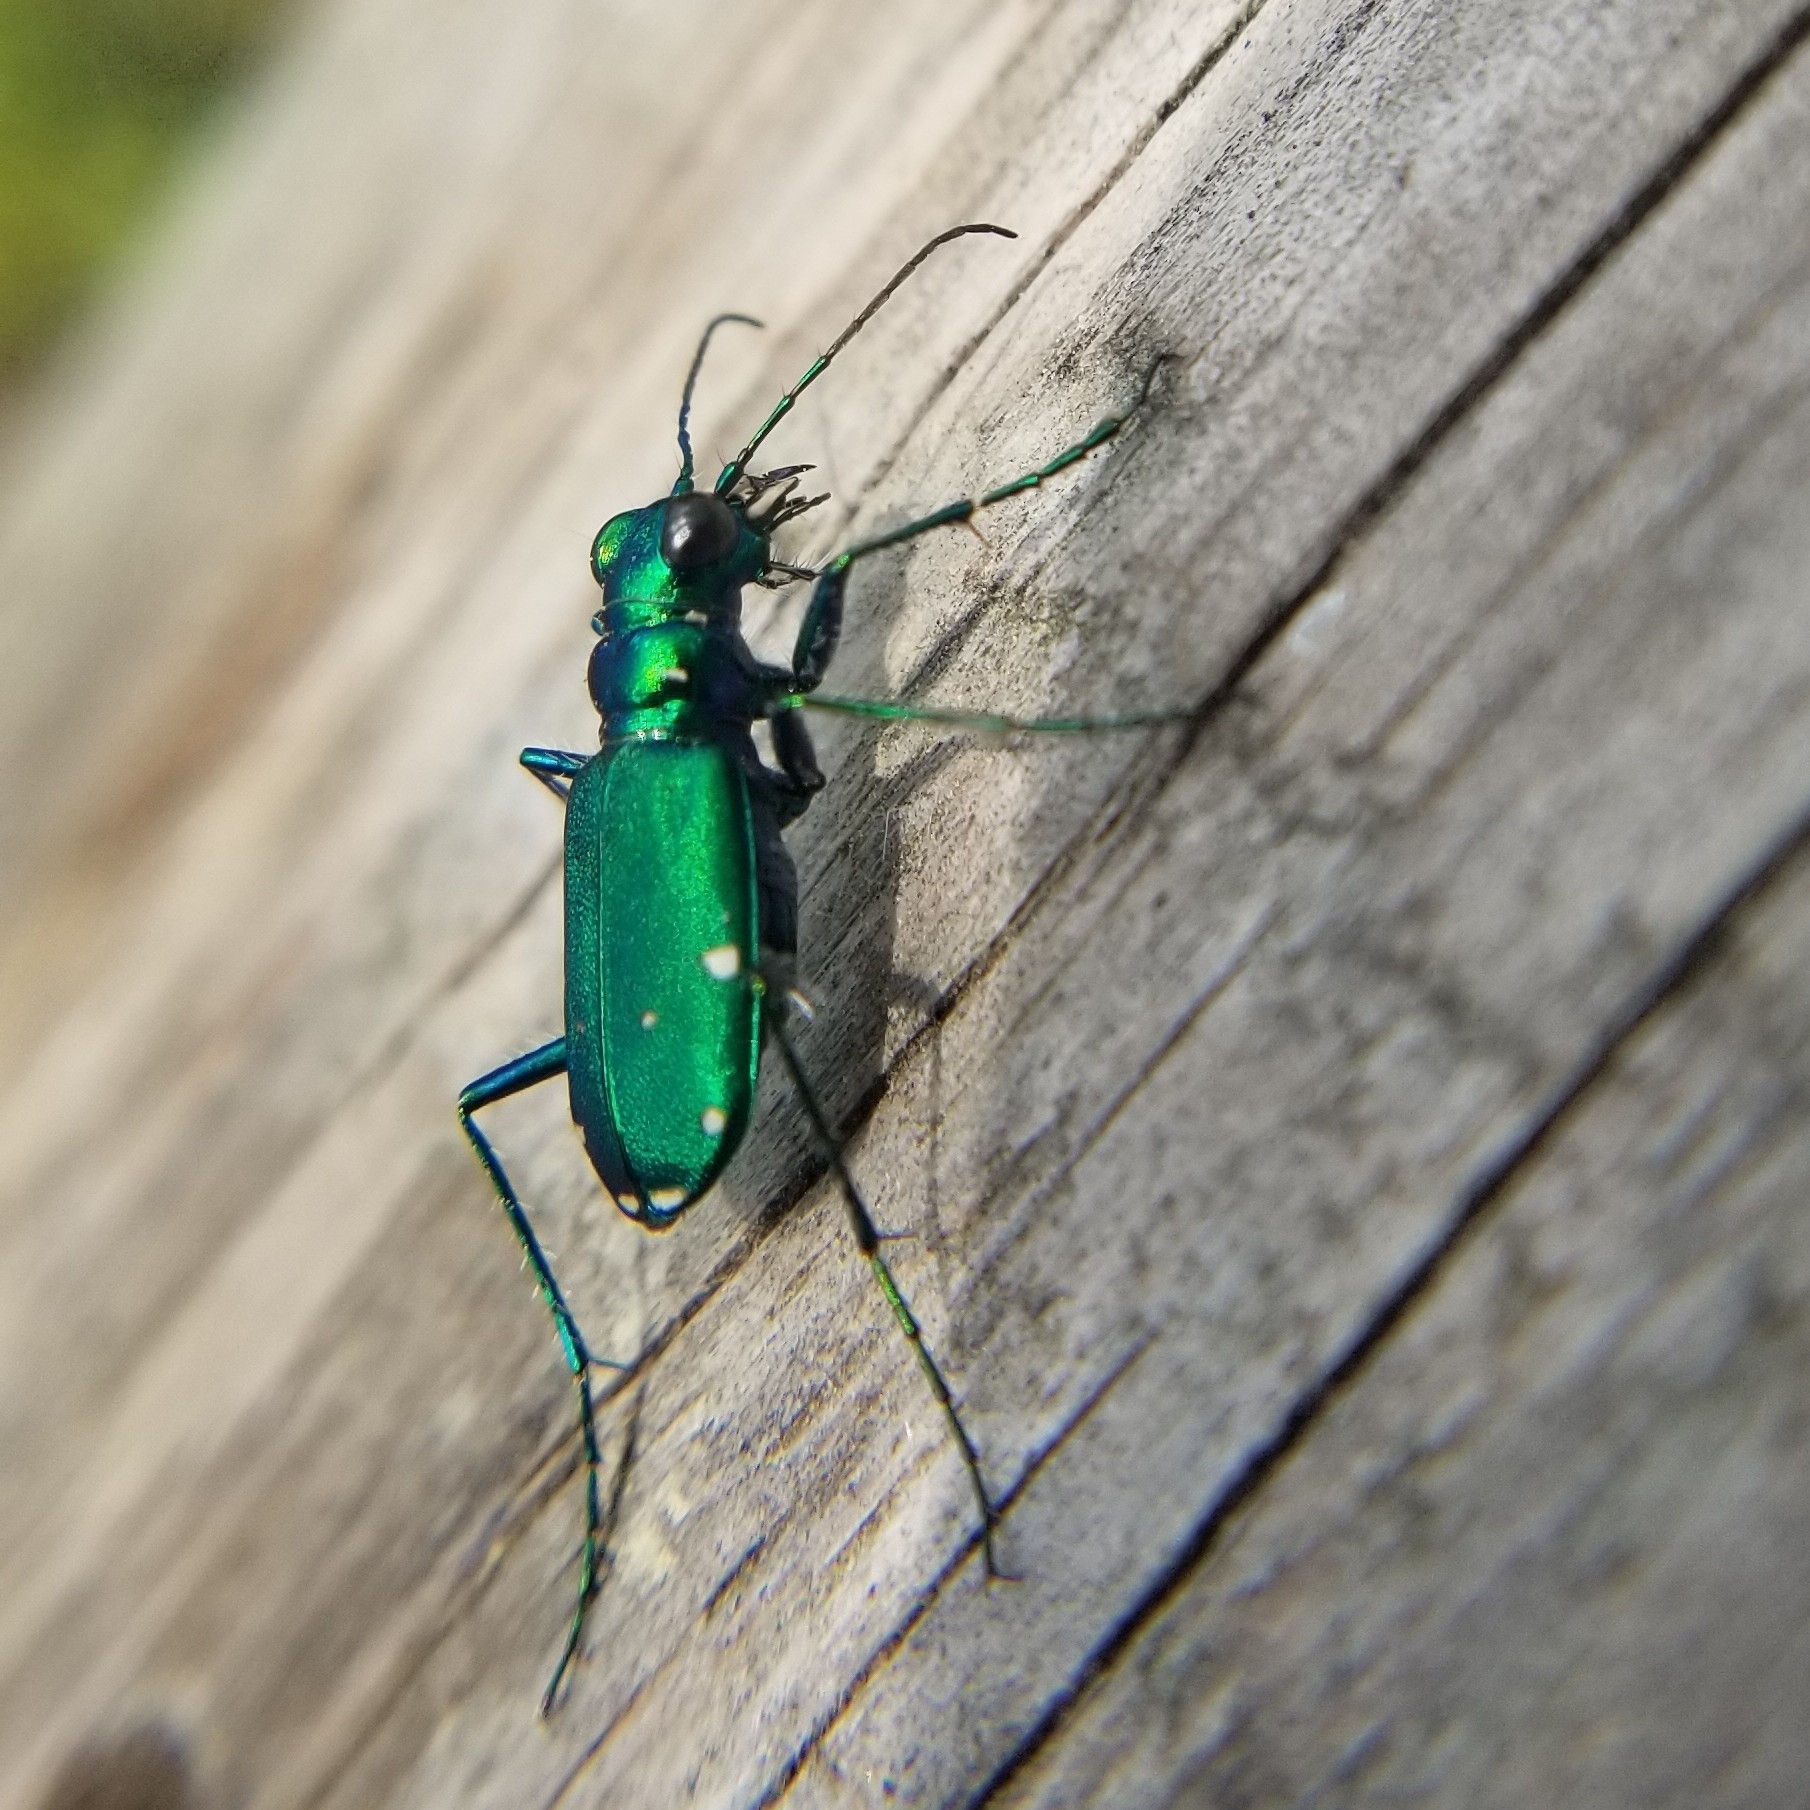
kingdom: Animalia
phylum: Arthropoda
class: Insecta
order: Coleoptera
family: Carabidae
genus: Cicindela
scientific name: Cicindela sexguttata
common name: Six-spotted tiger beetle
